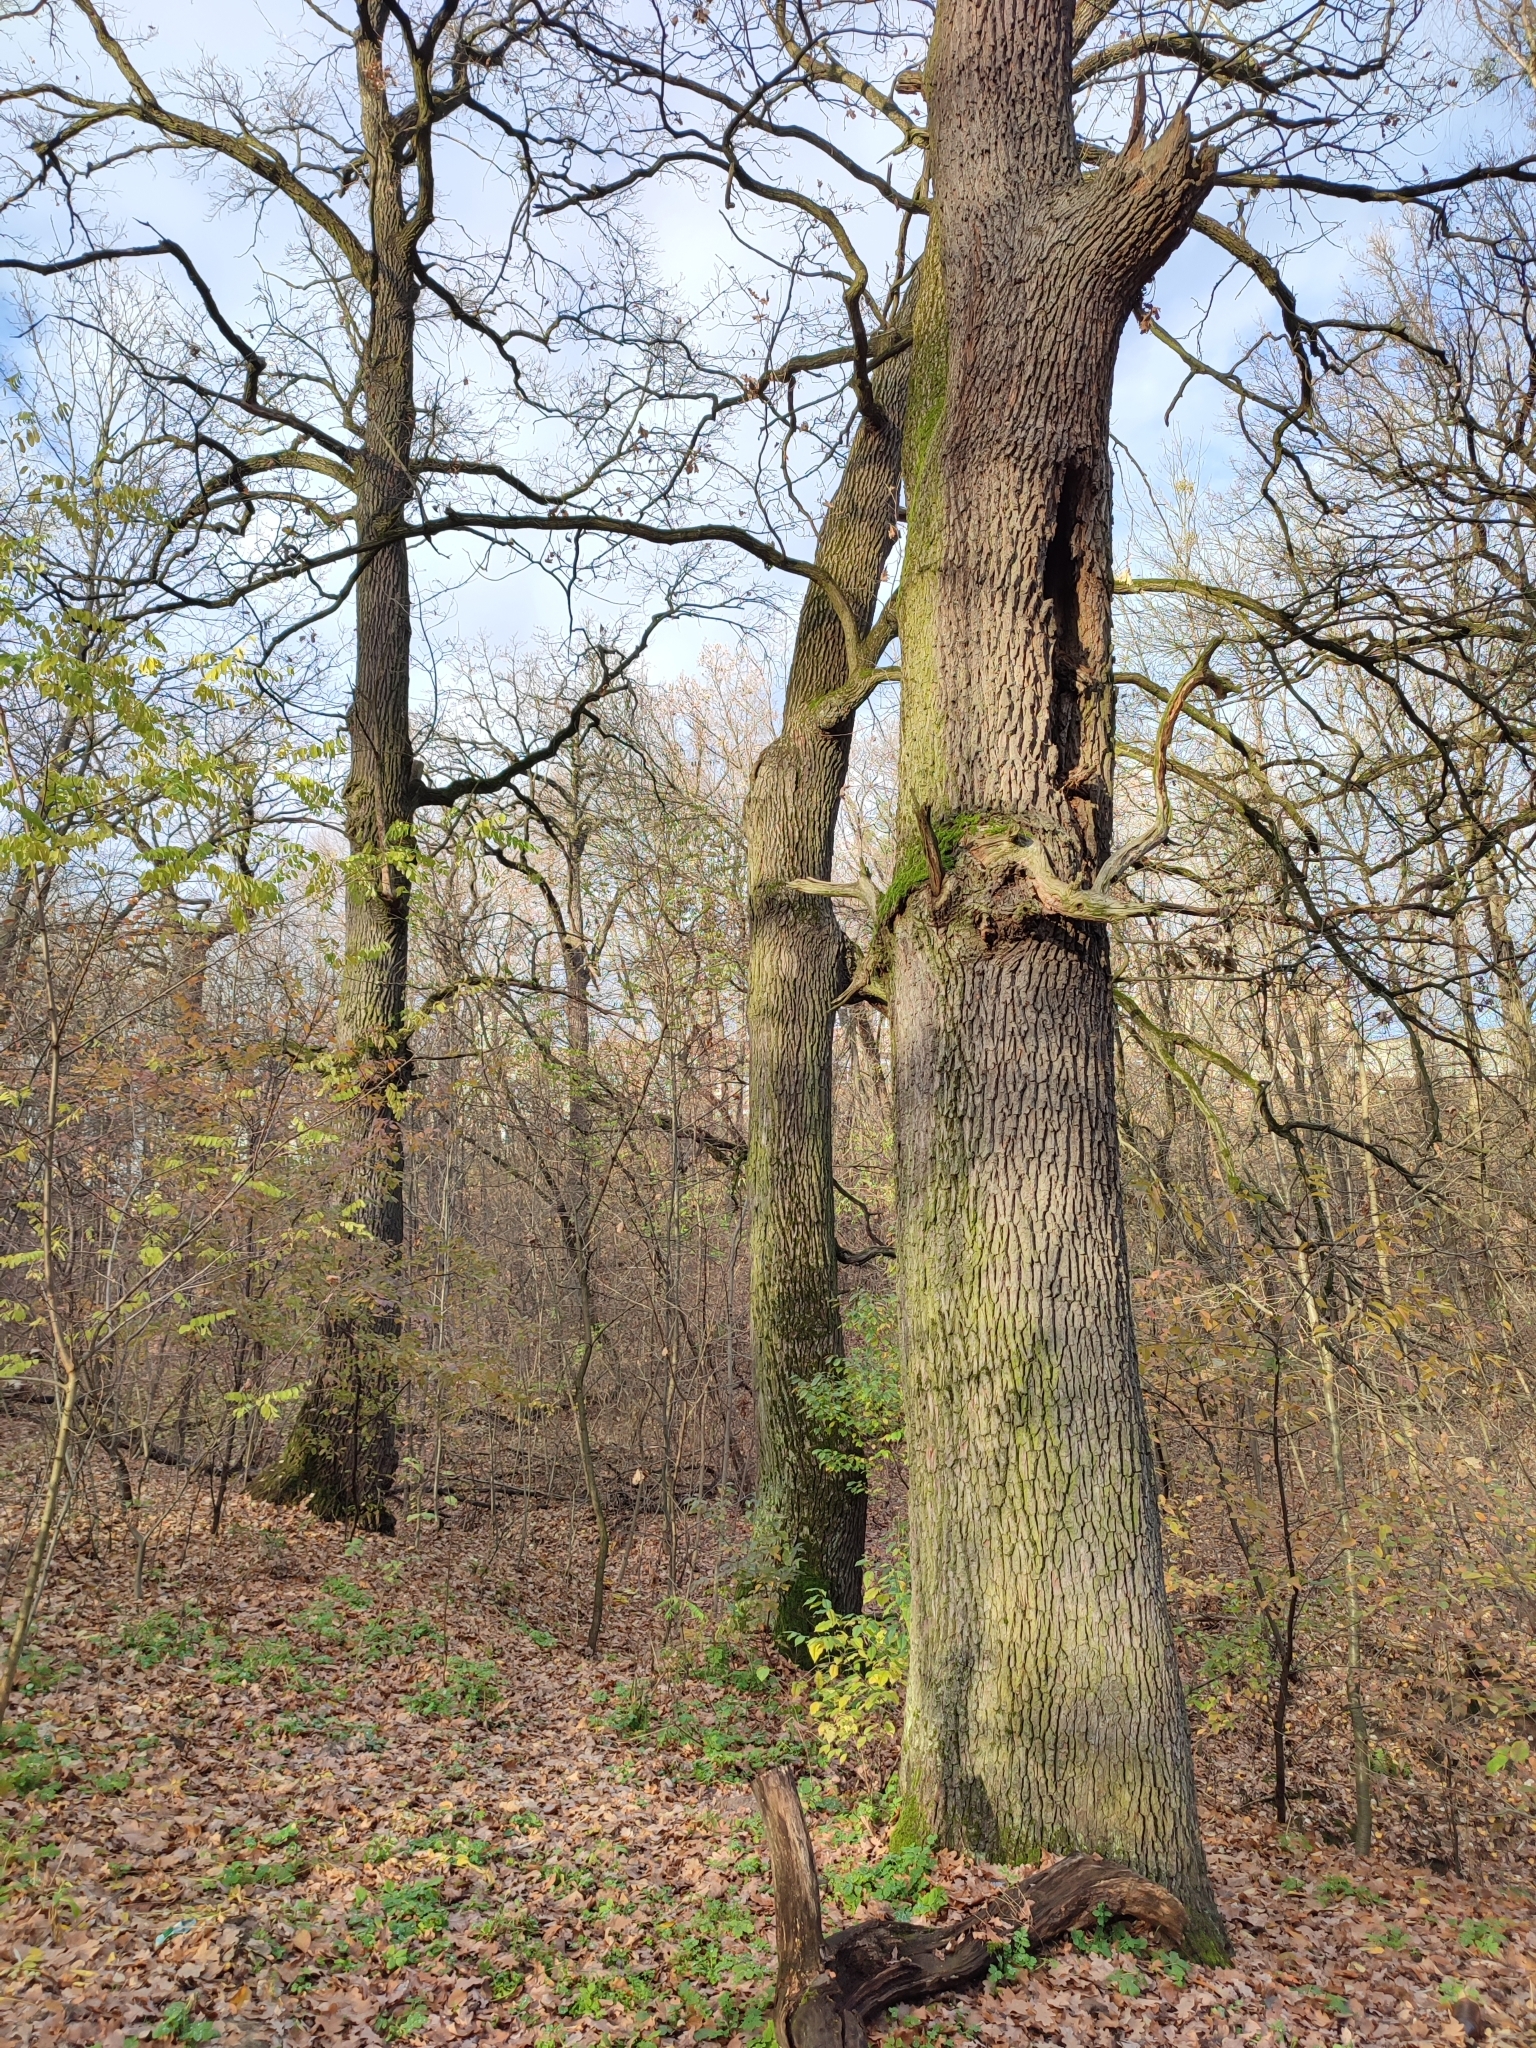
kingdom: Plantae
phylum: Tracheophyta
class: Magnoliopsida
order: Fagales
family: Fagaceae
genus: Quercus
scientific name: Quercus robur
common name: Pedunculate oak
